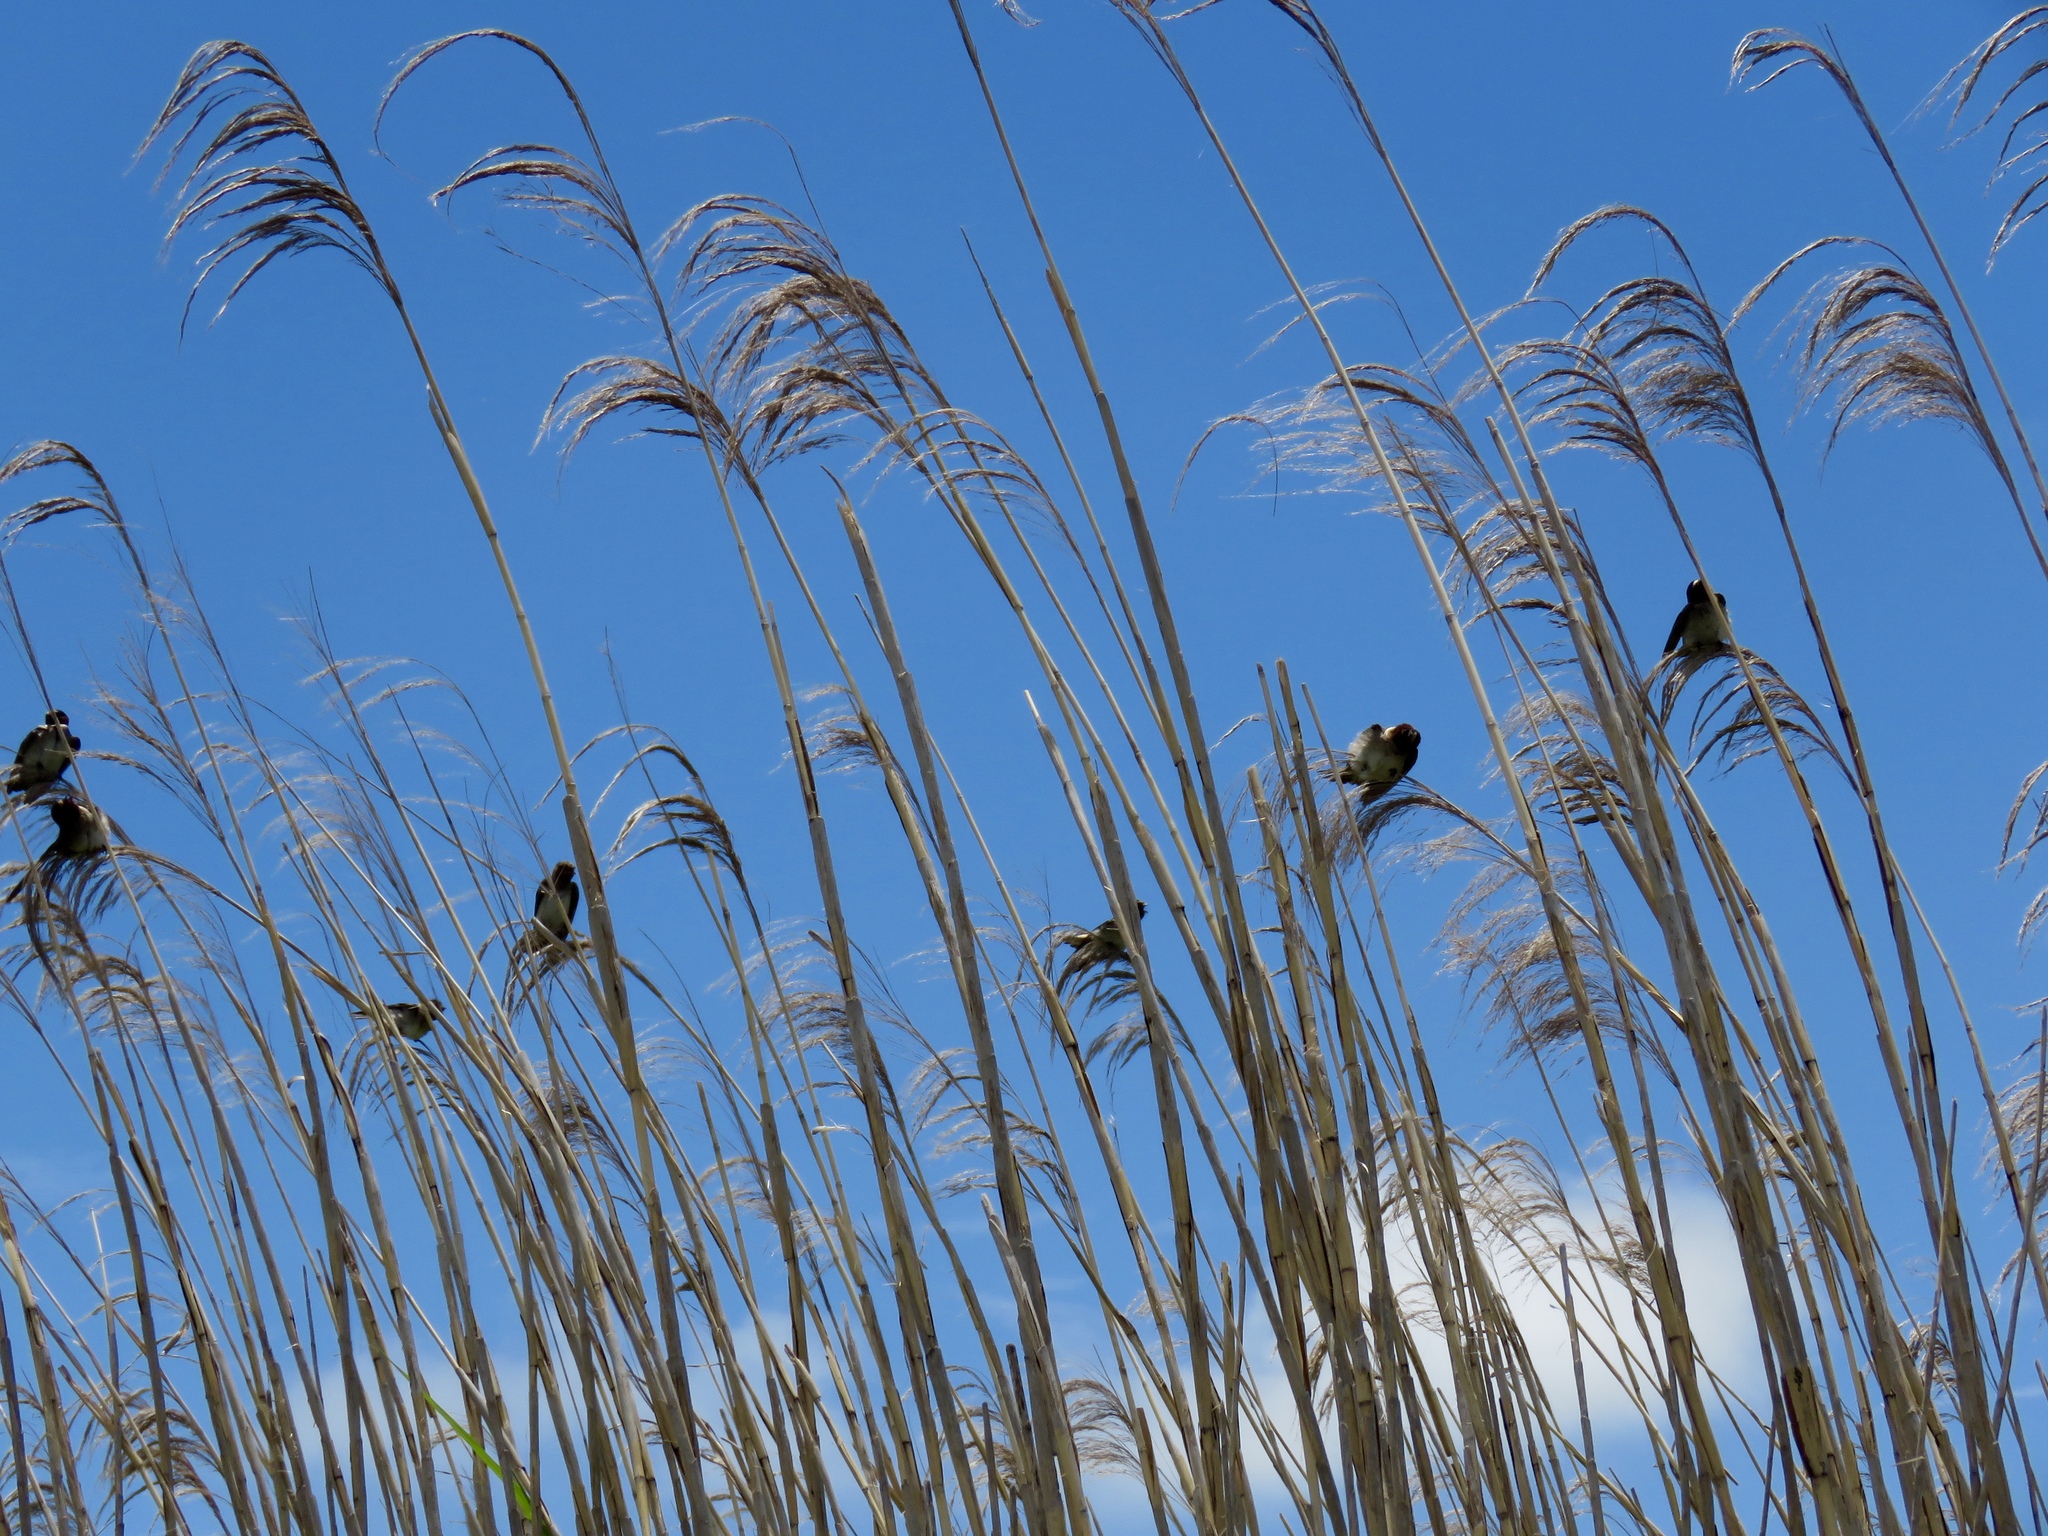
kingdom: Animalia
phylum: Chordata
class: Aves
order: Passeriformes
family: Hirundinidae
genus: Petrochelidon
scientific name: Petrochelidon pyrrhonota
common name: American cliff swallow
